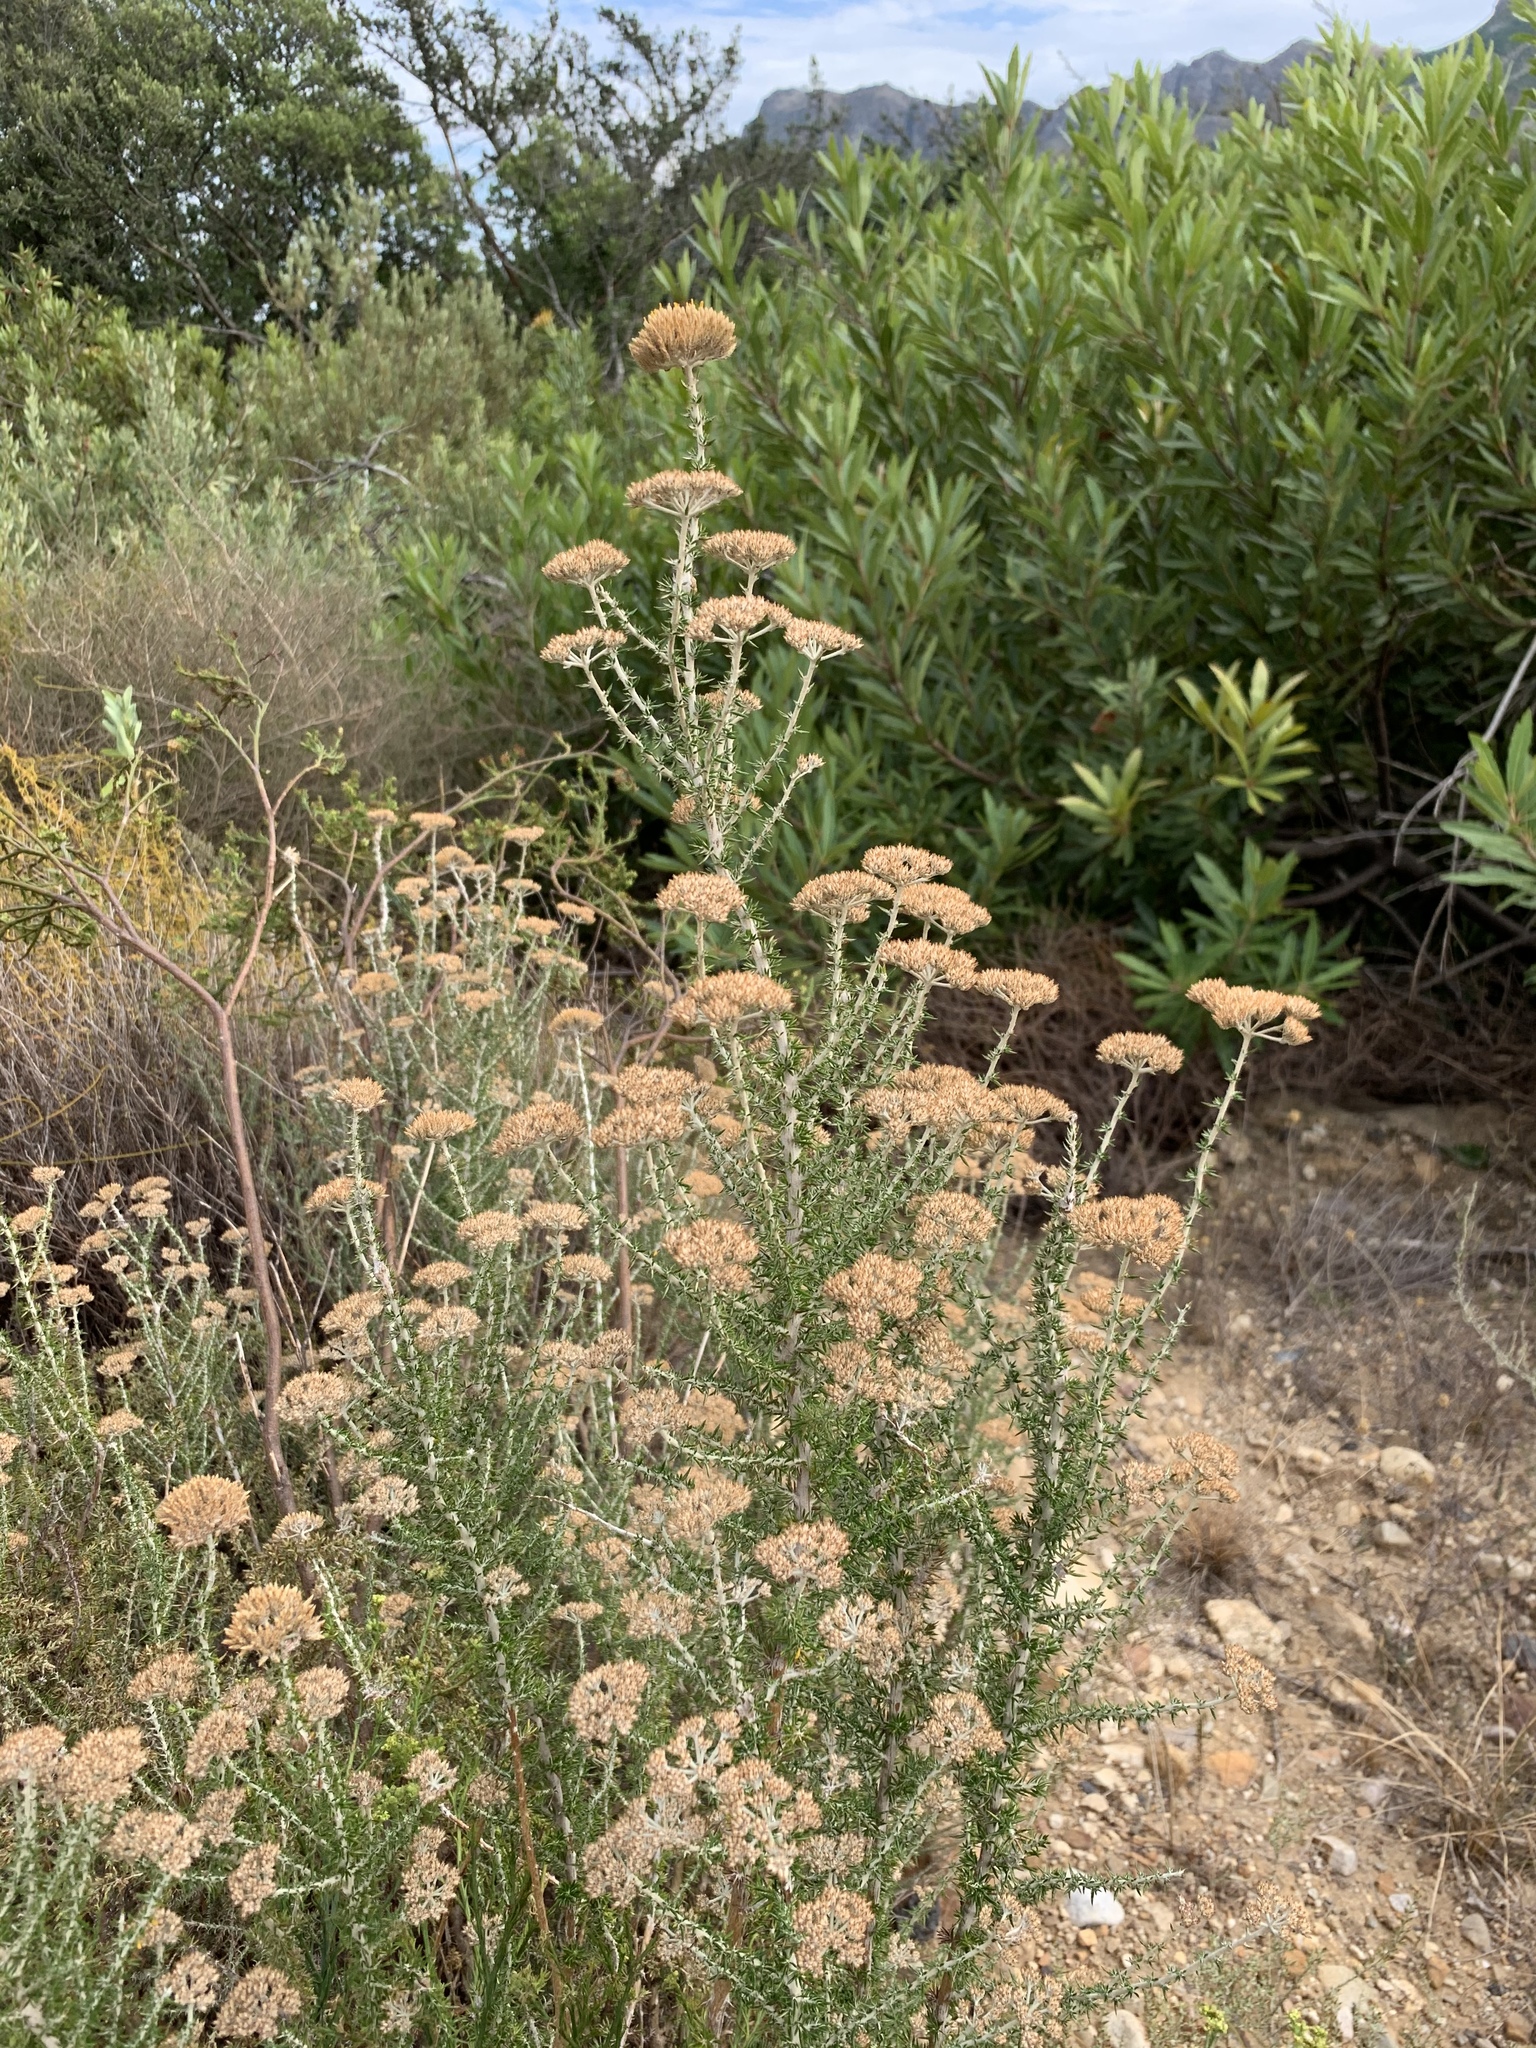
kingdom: Plantae
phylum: Tracheophyta
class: Magnoliopsida
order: Asterales
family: Asteraceae
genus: Metalasia
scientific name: Metalasia densa
